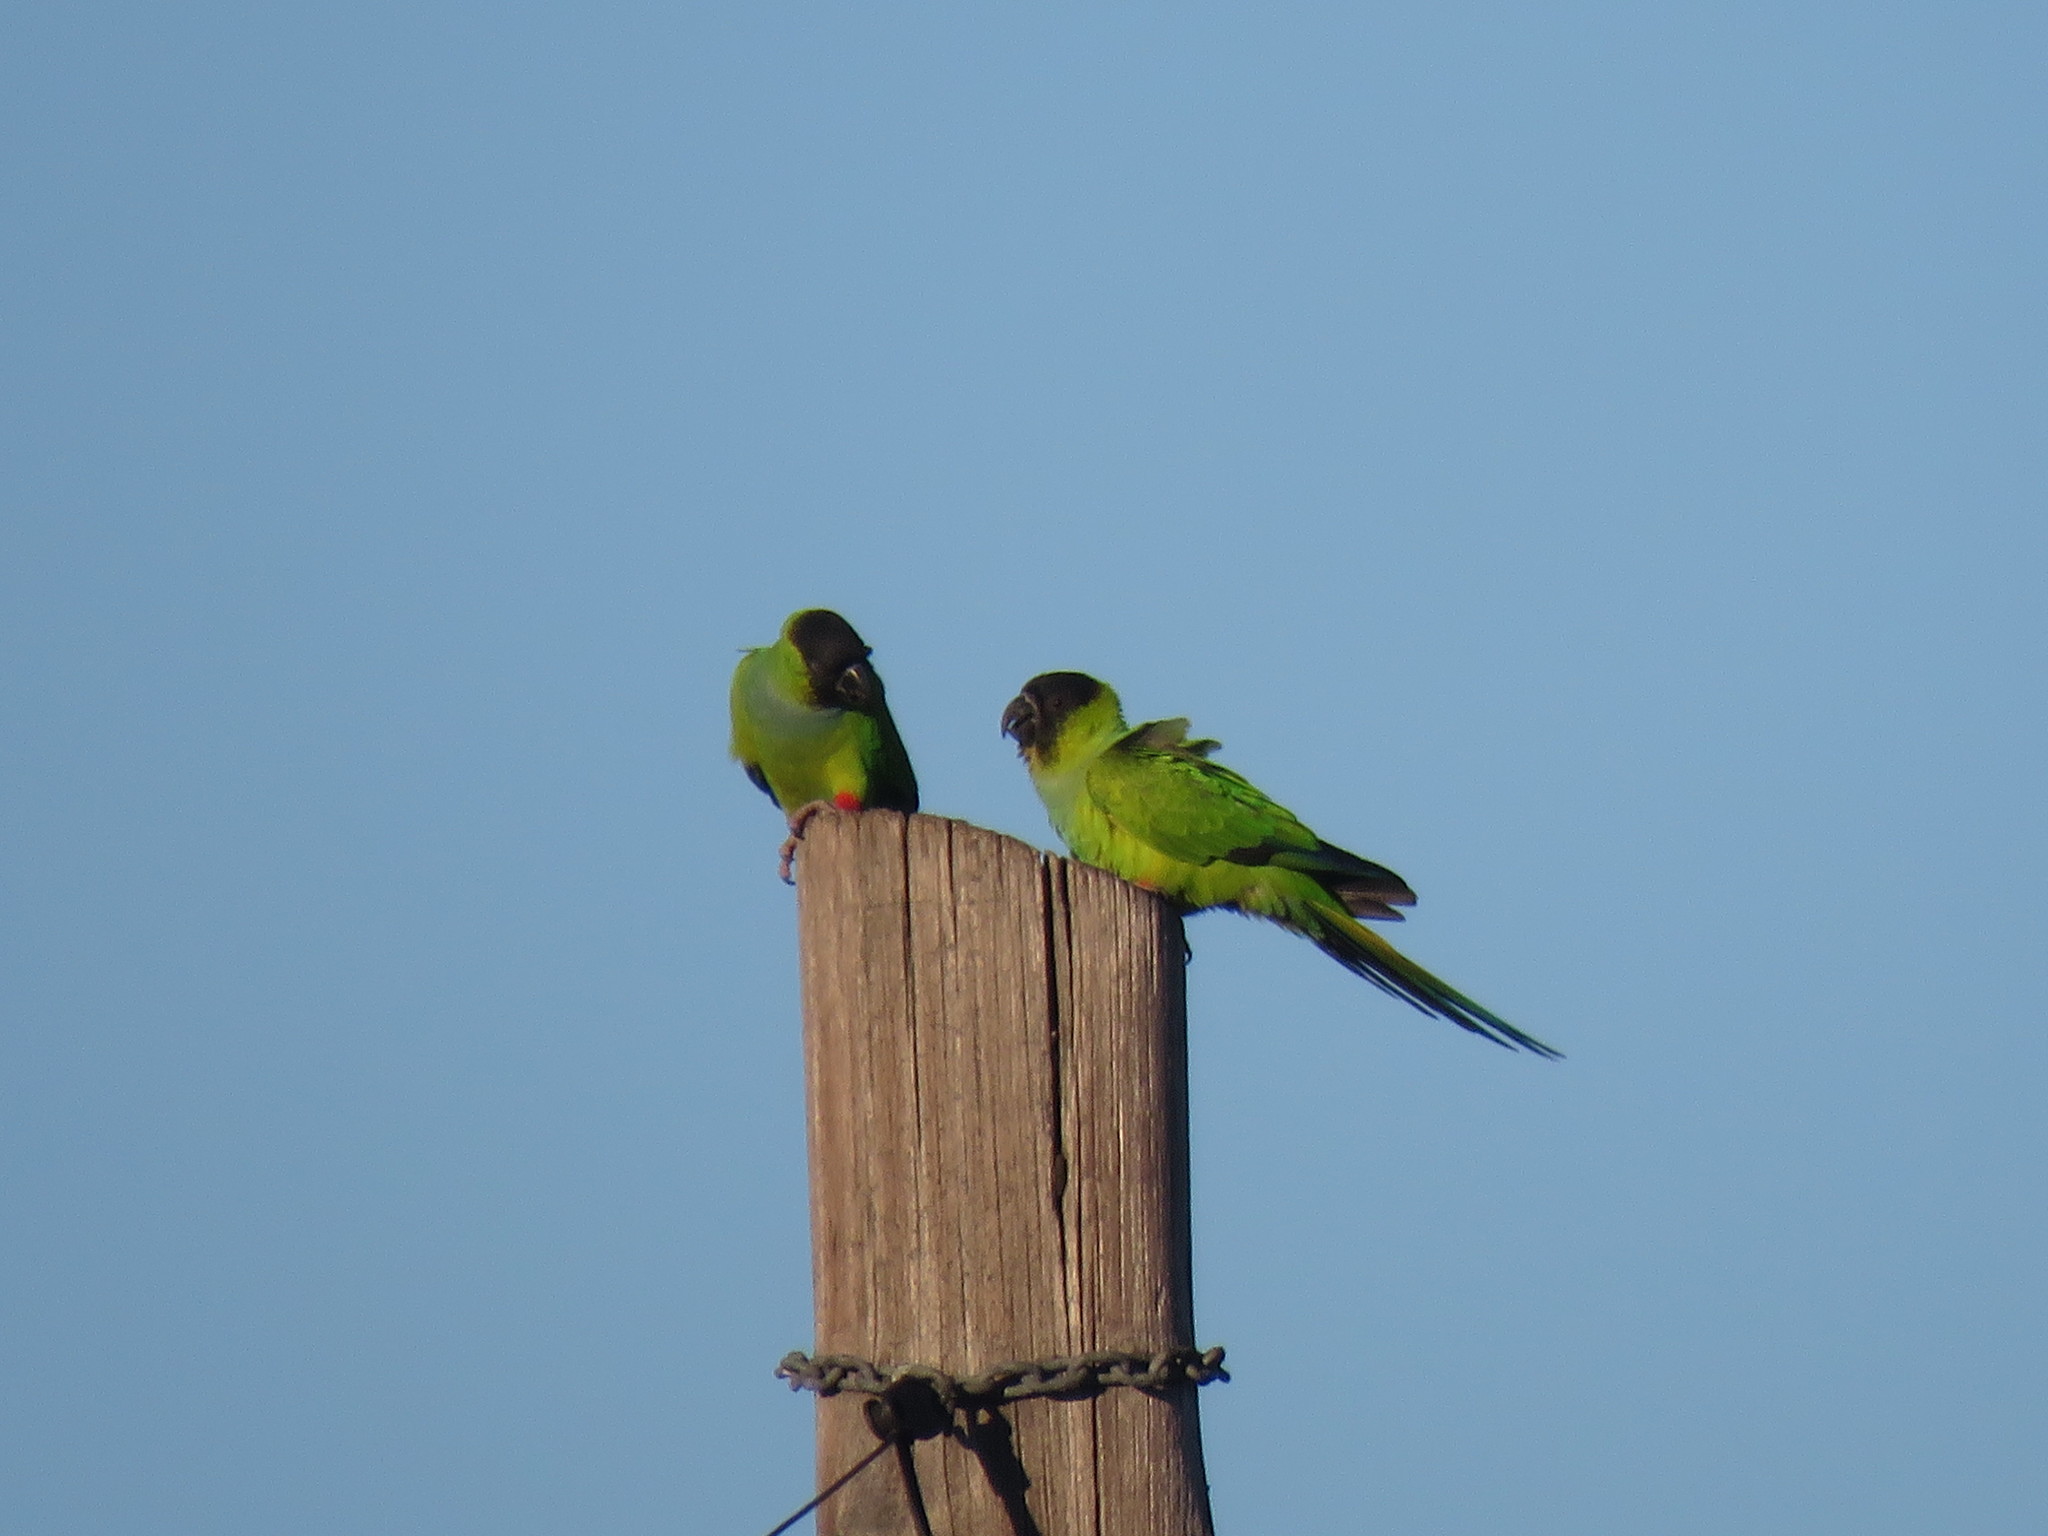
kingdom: Animalia
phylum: Chordata
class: Aves
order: Psittaciformes
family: Psittacidae
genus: Nandayus
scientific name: Nandayus nenday
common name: Nanday parakeet
